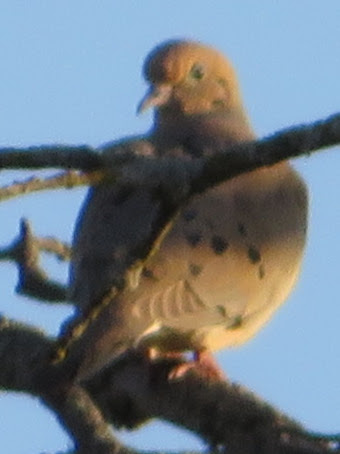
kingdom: Animalia
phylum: Chordata
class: Aves
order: Columbiformes
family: Columbidae
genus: Zenaida
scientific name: Zenaida macroura
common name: Mourning dove
